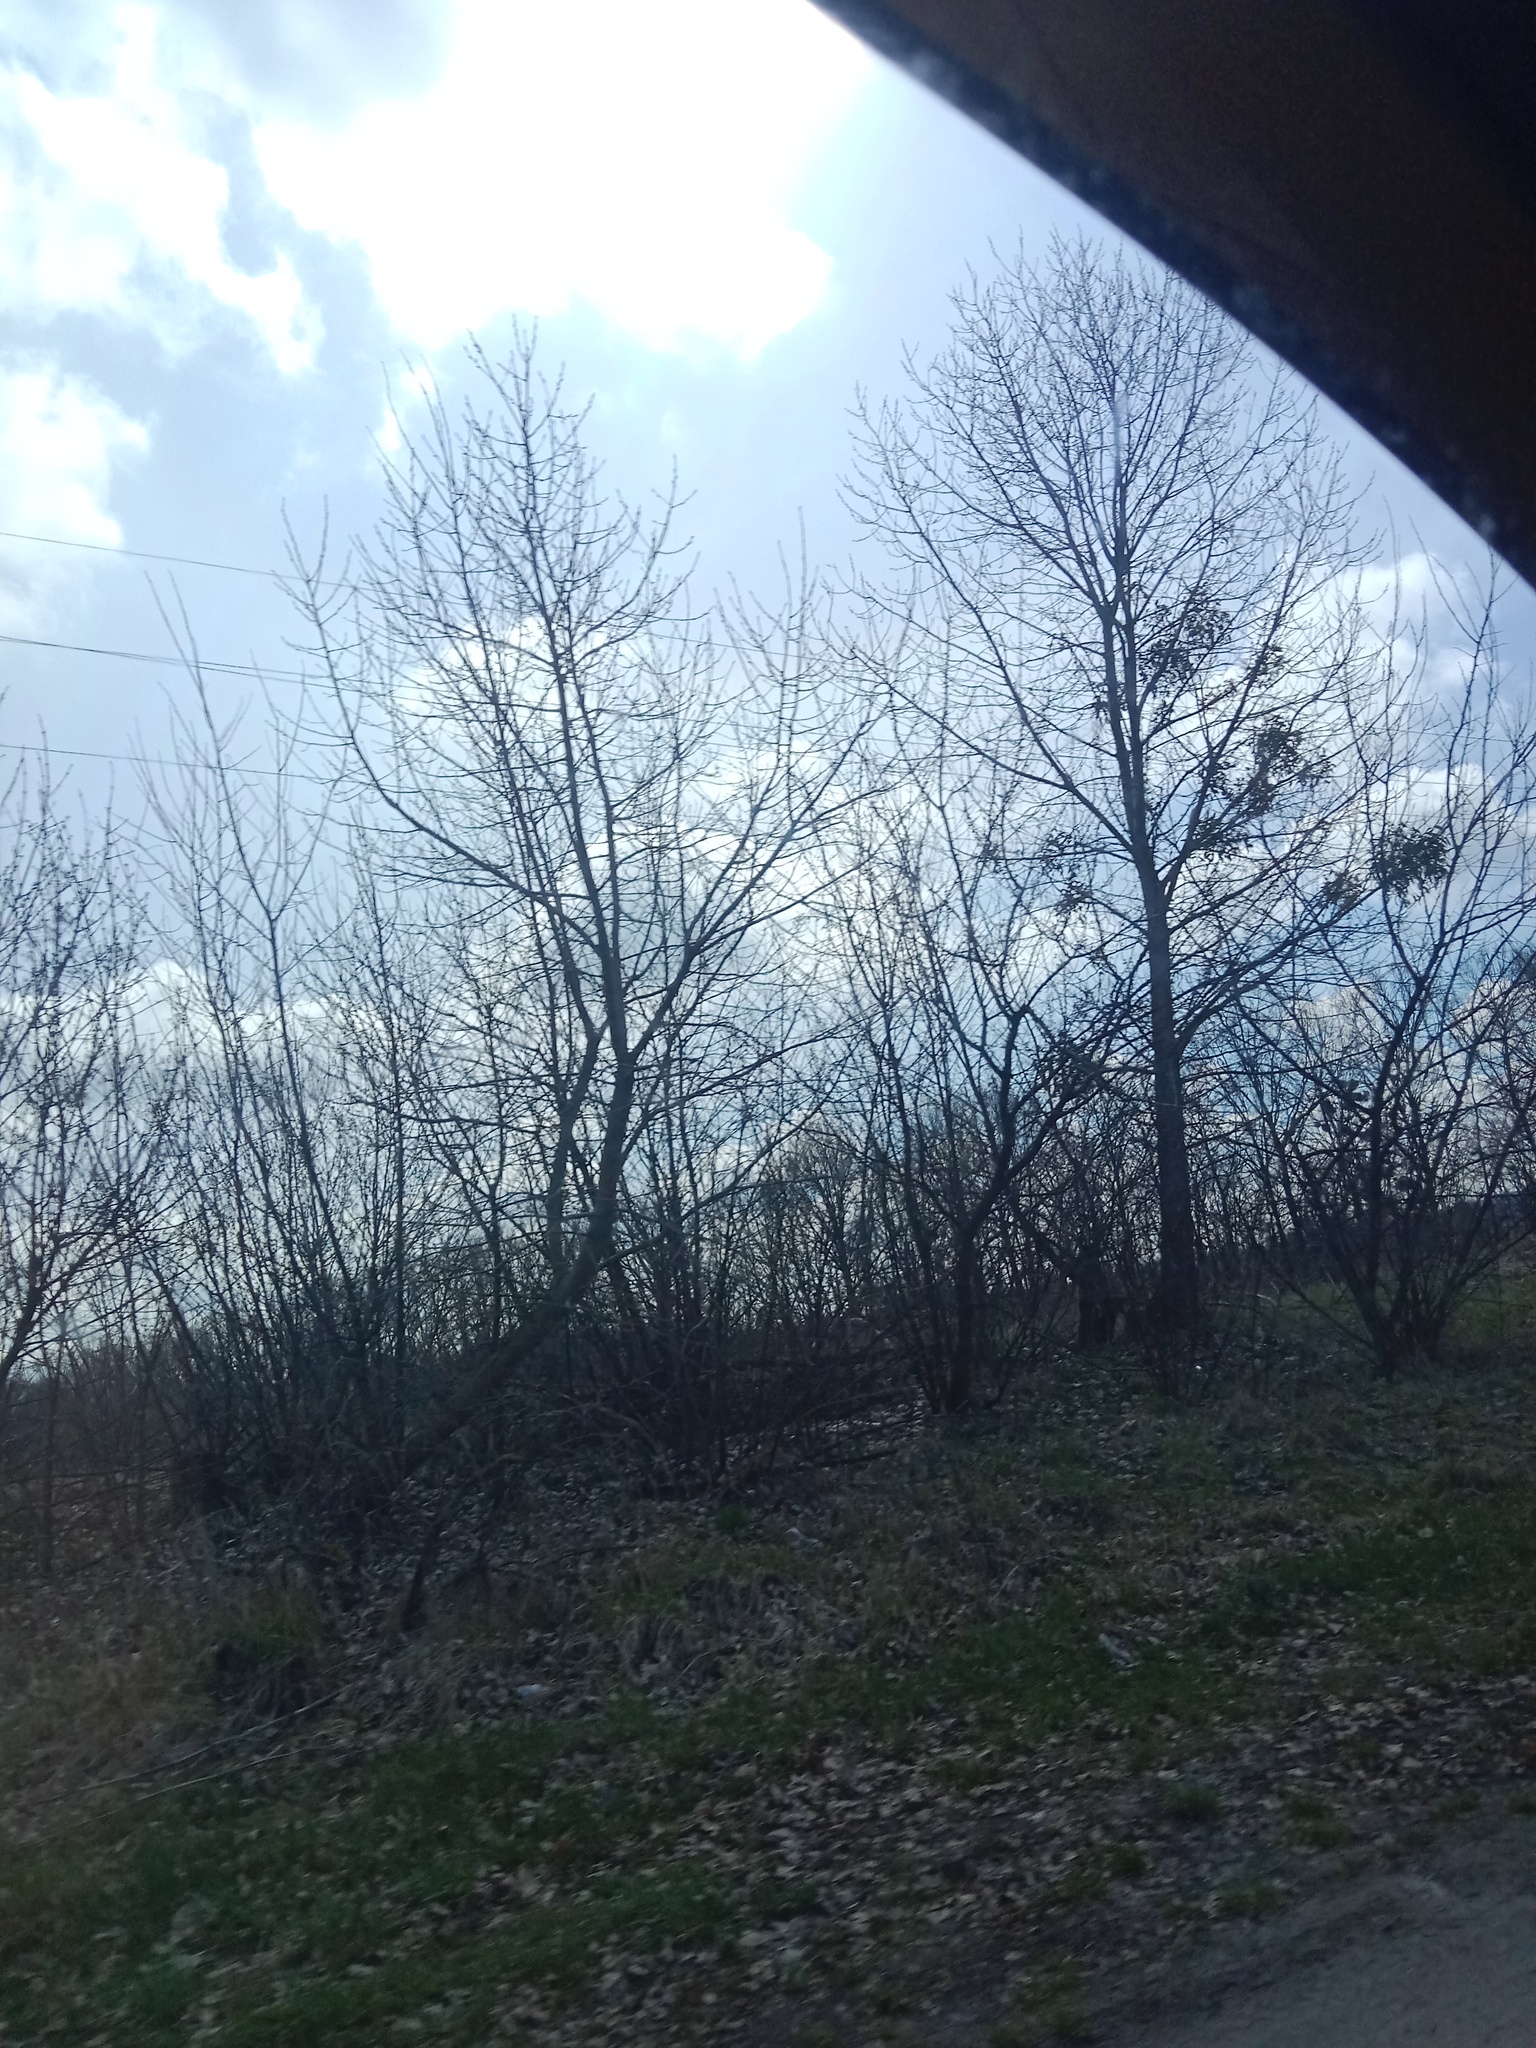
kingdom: Plantae
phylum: Tracheophyta
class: Magnoliopsida
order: Santalales
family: Viscaceae
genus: Viscum
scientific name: Viscum album
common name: Mistletoe
